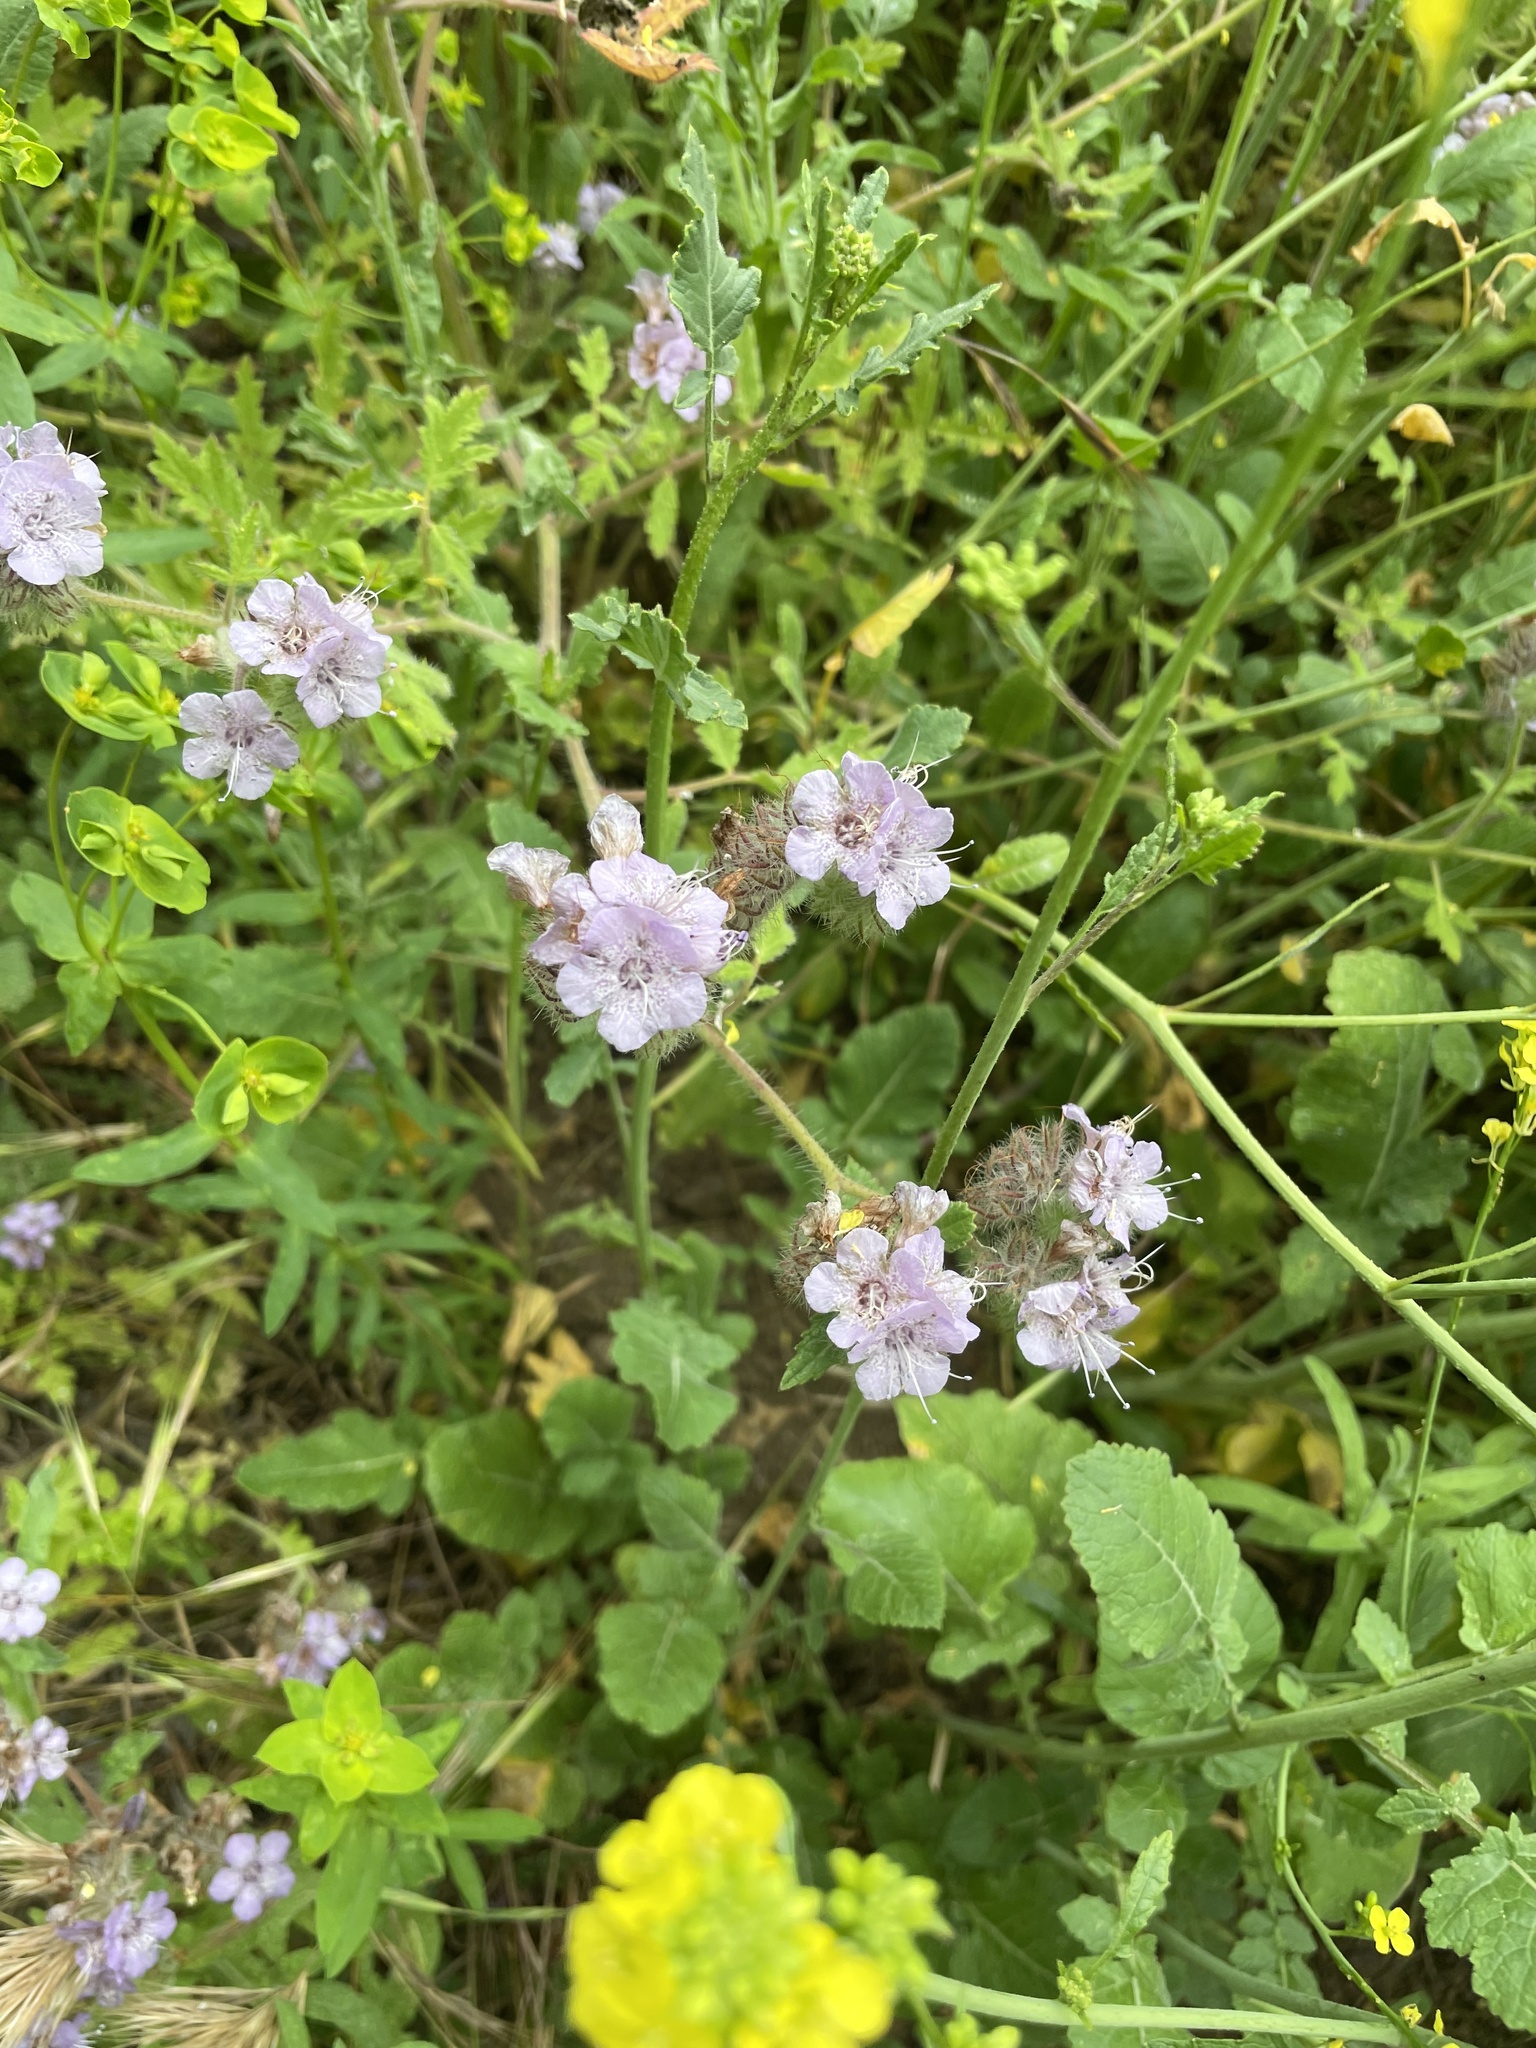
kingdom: Plantae
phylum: Tracheophyta
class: Magnoliopsida
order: Boraginales
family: Hydrophyllaceae
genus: Phacelia
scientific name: Phacelia cicutaria
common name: Caterpillar phacelia
